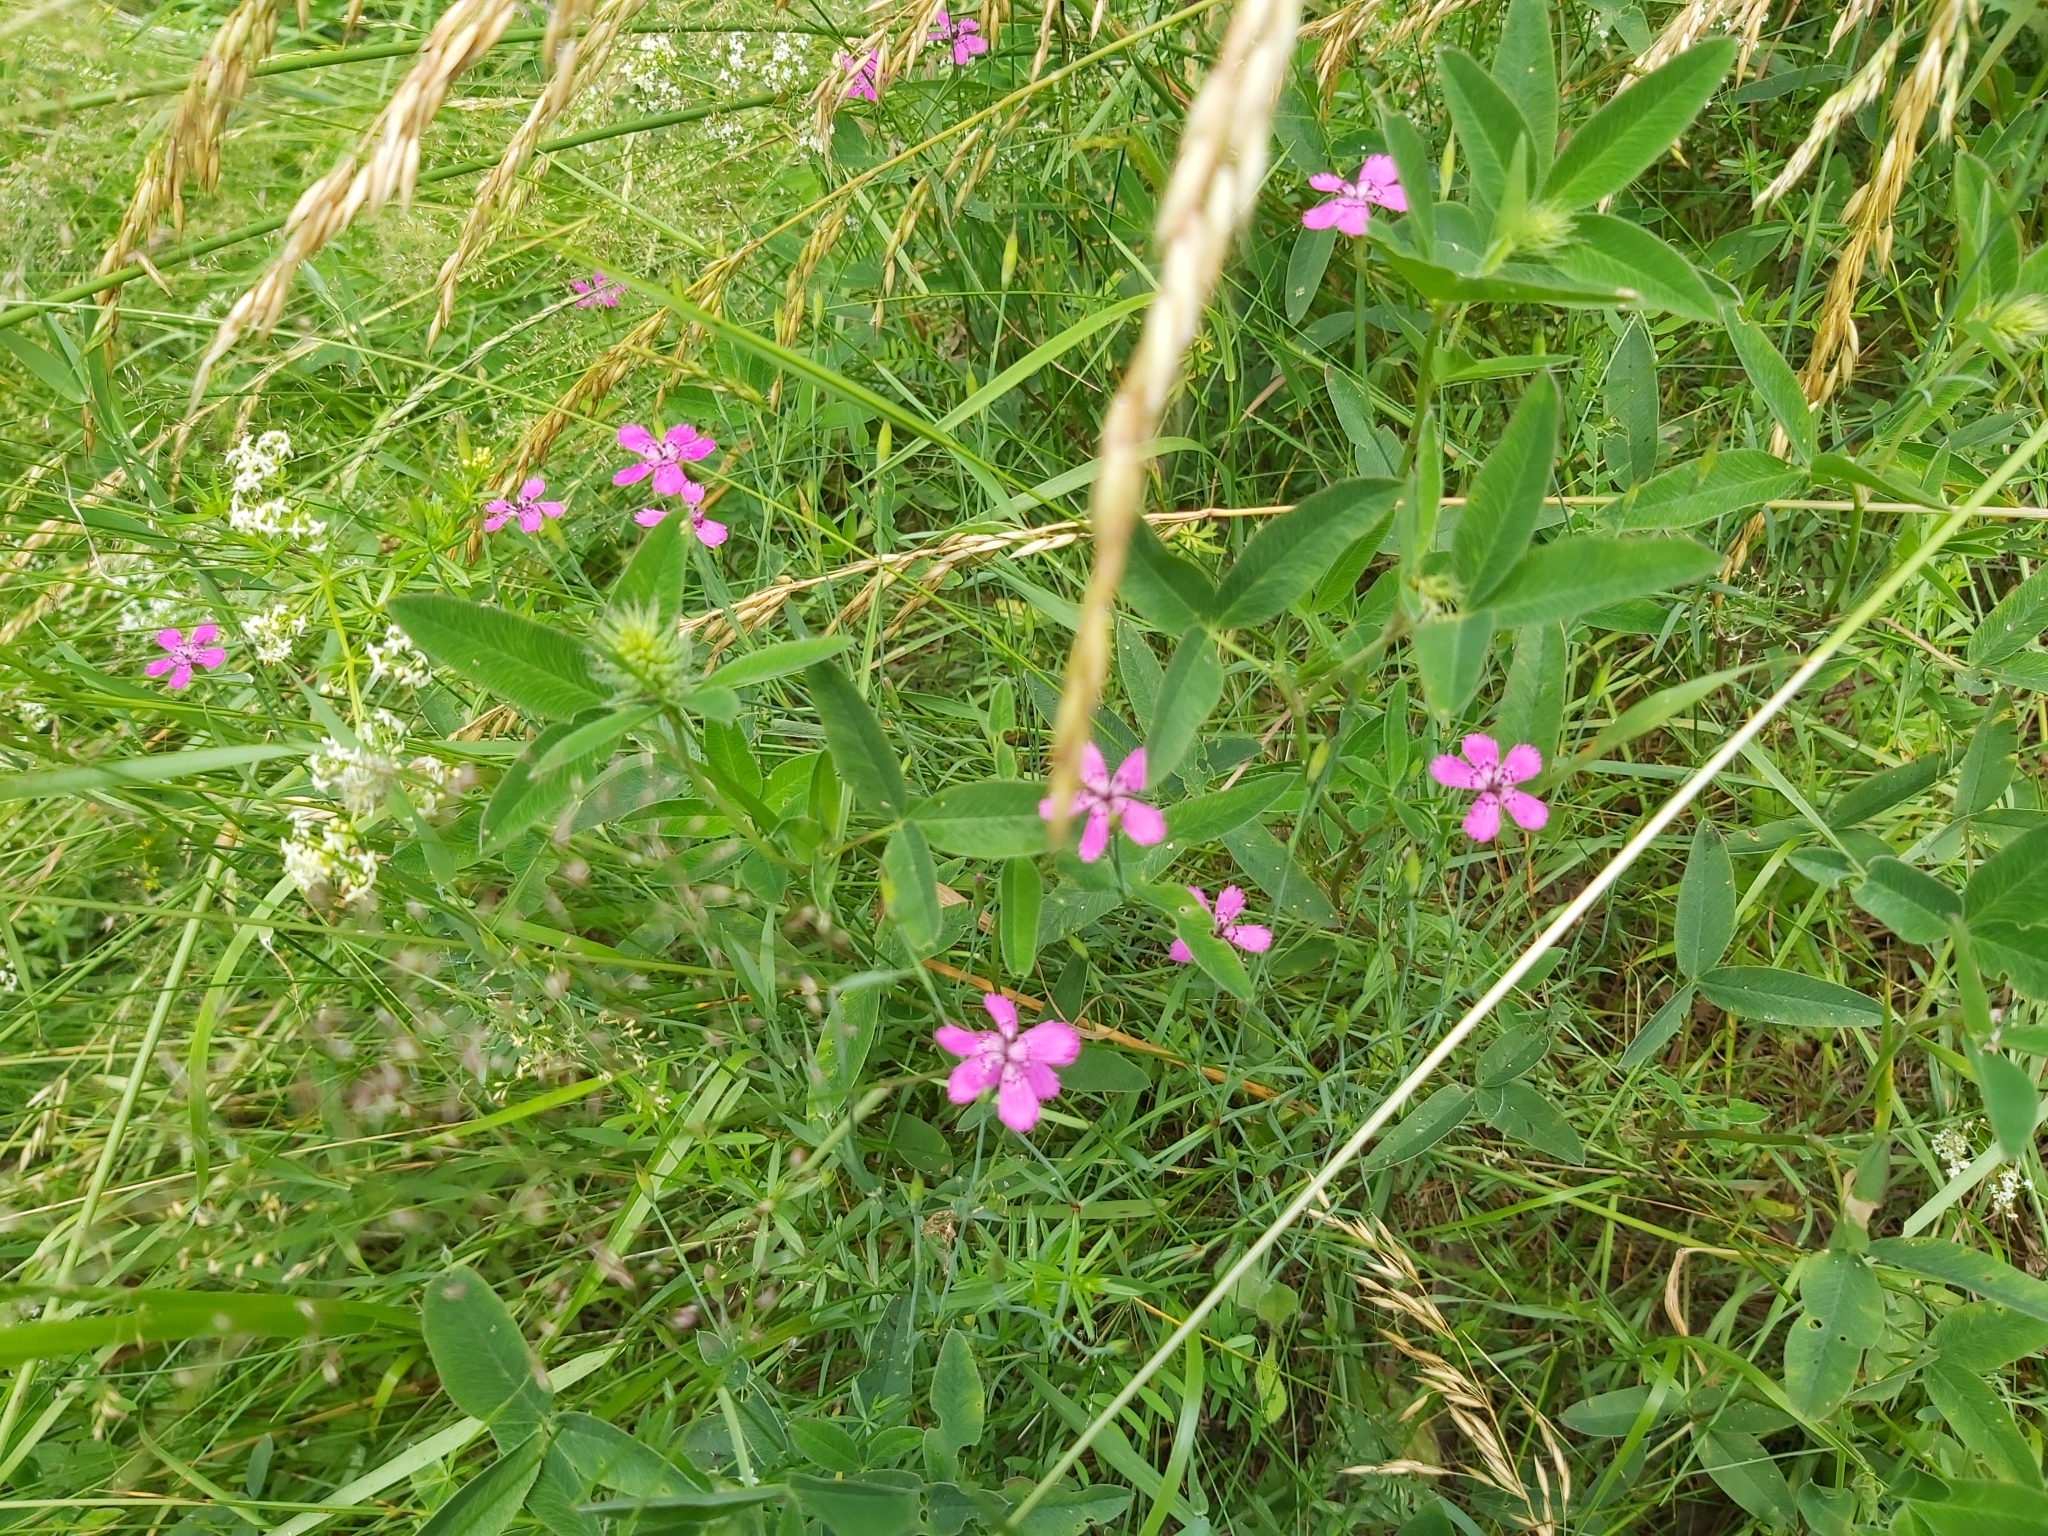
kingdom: Plantae
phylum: Tracheophyta
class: Magnoliopsida
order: Caryophyllales
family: Caryophyllaceae
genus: Dianthus
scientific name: Dianthus deltoides
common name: Maiden pink
